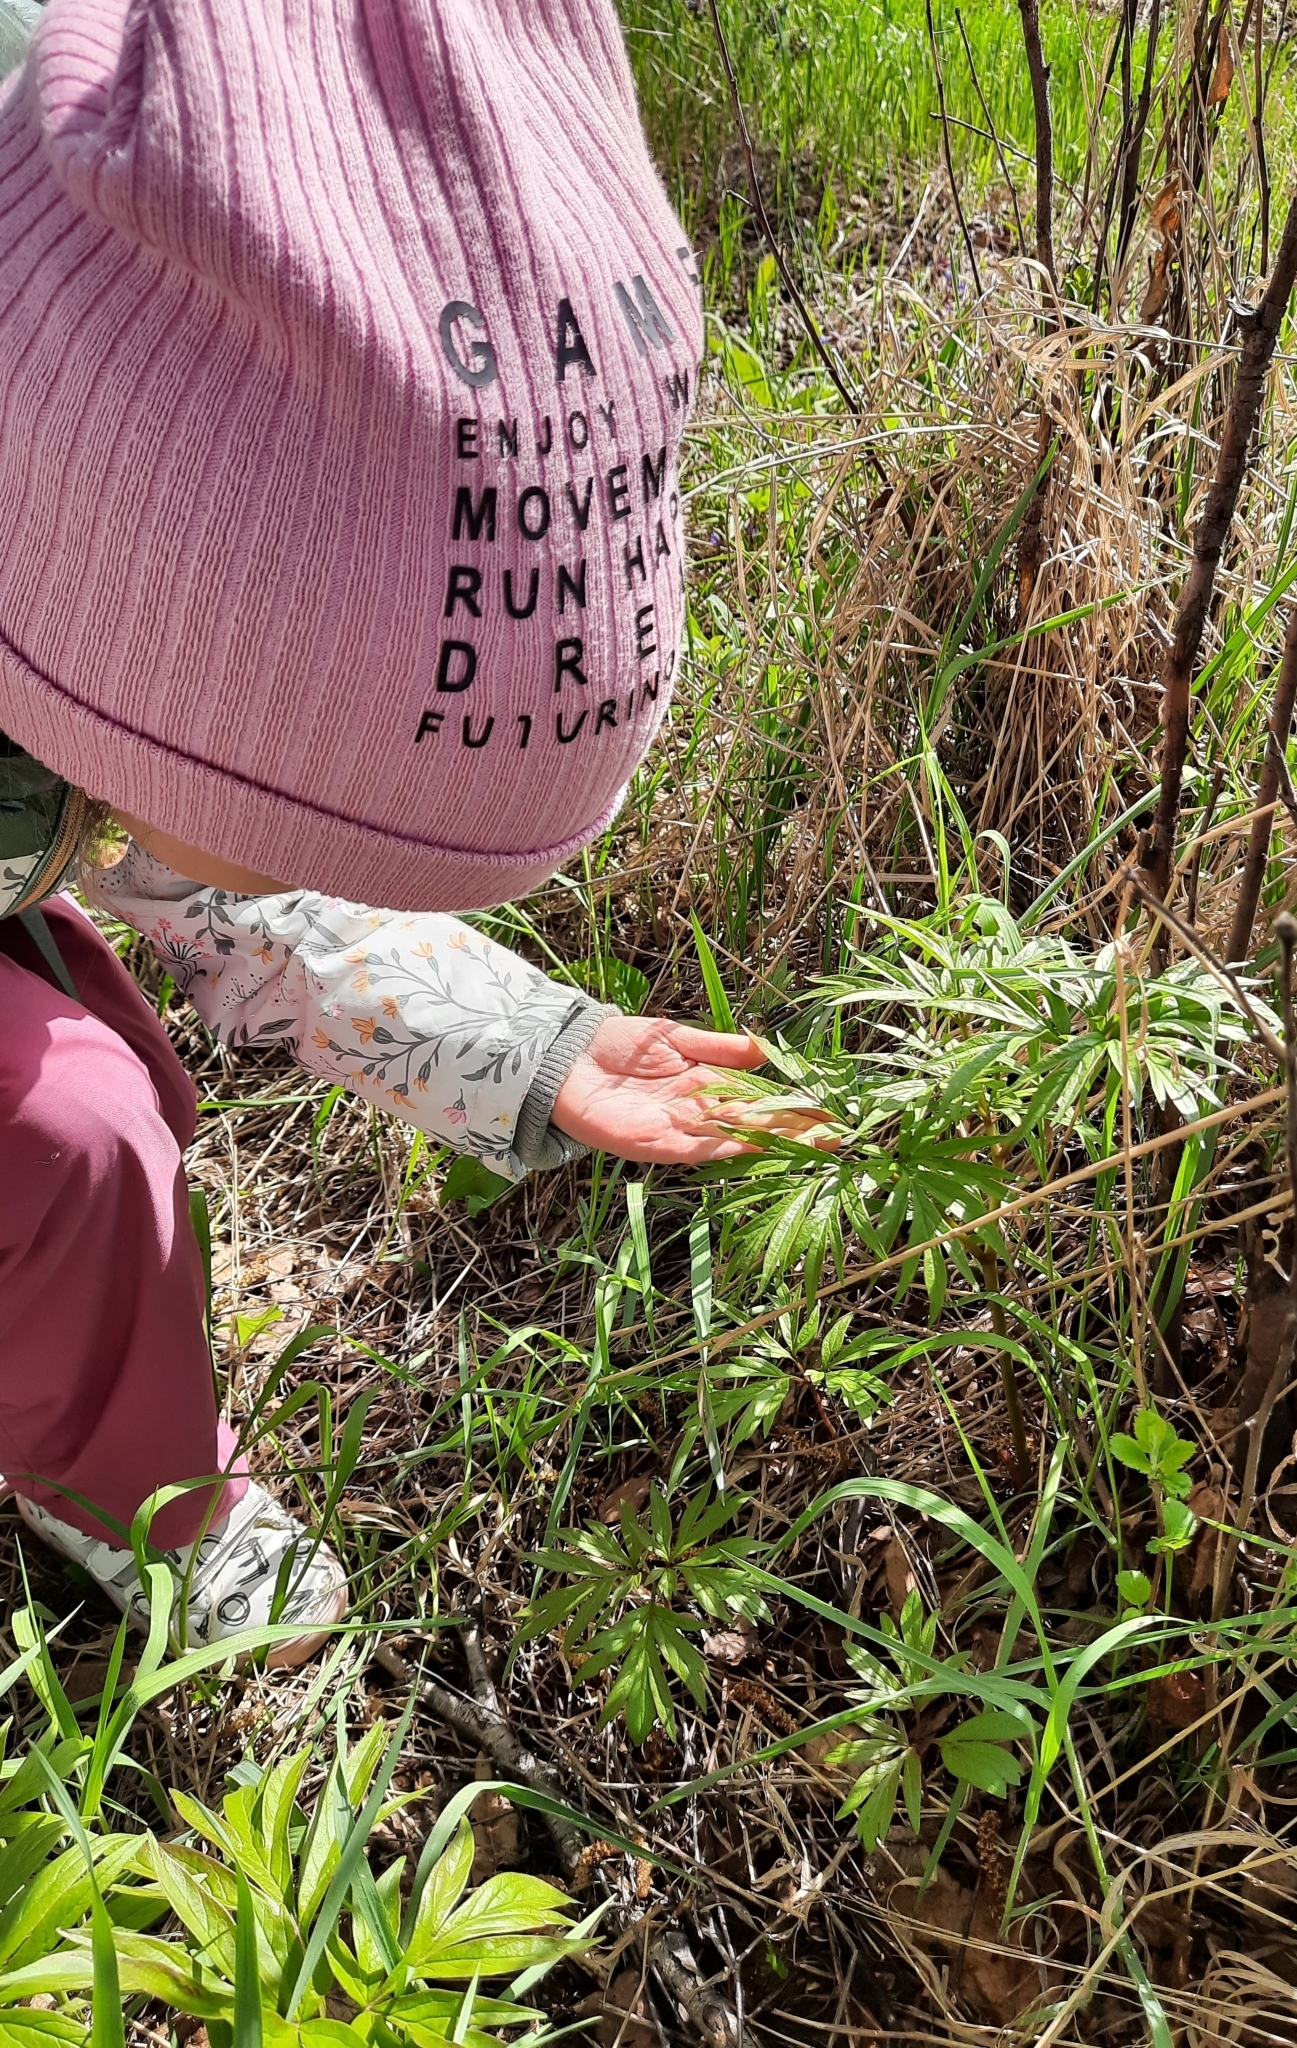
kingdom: Plantae
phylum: Tracheophyta
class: Magnoliopsida
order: Saxifragales
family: Paeoniaceae
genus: Paeonia
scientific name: Paeonia anomala
